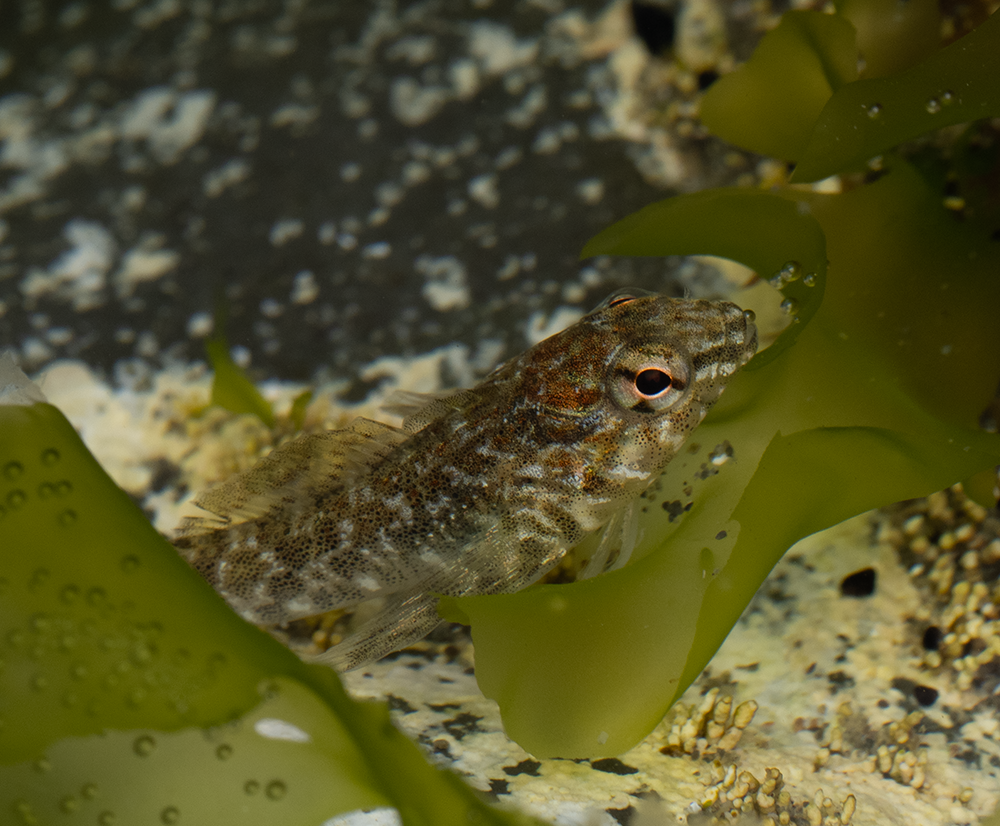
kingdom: Animalia
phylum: Chordata
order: Perciformes
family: Tripterygiidae
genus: Bellapiscis
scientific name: Bellapiscis medius
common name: Twister
